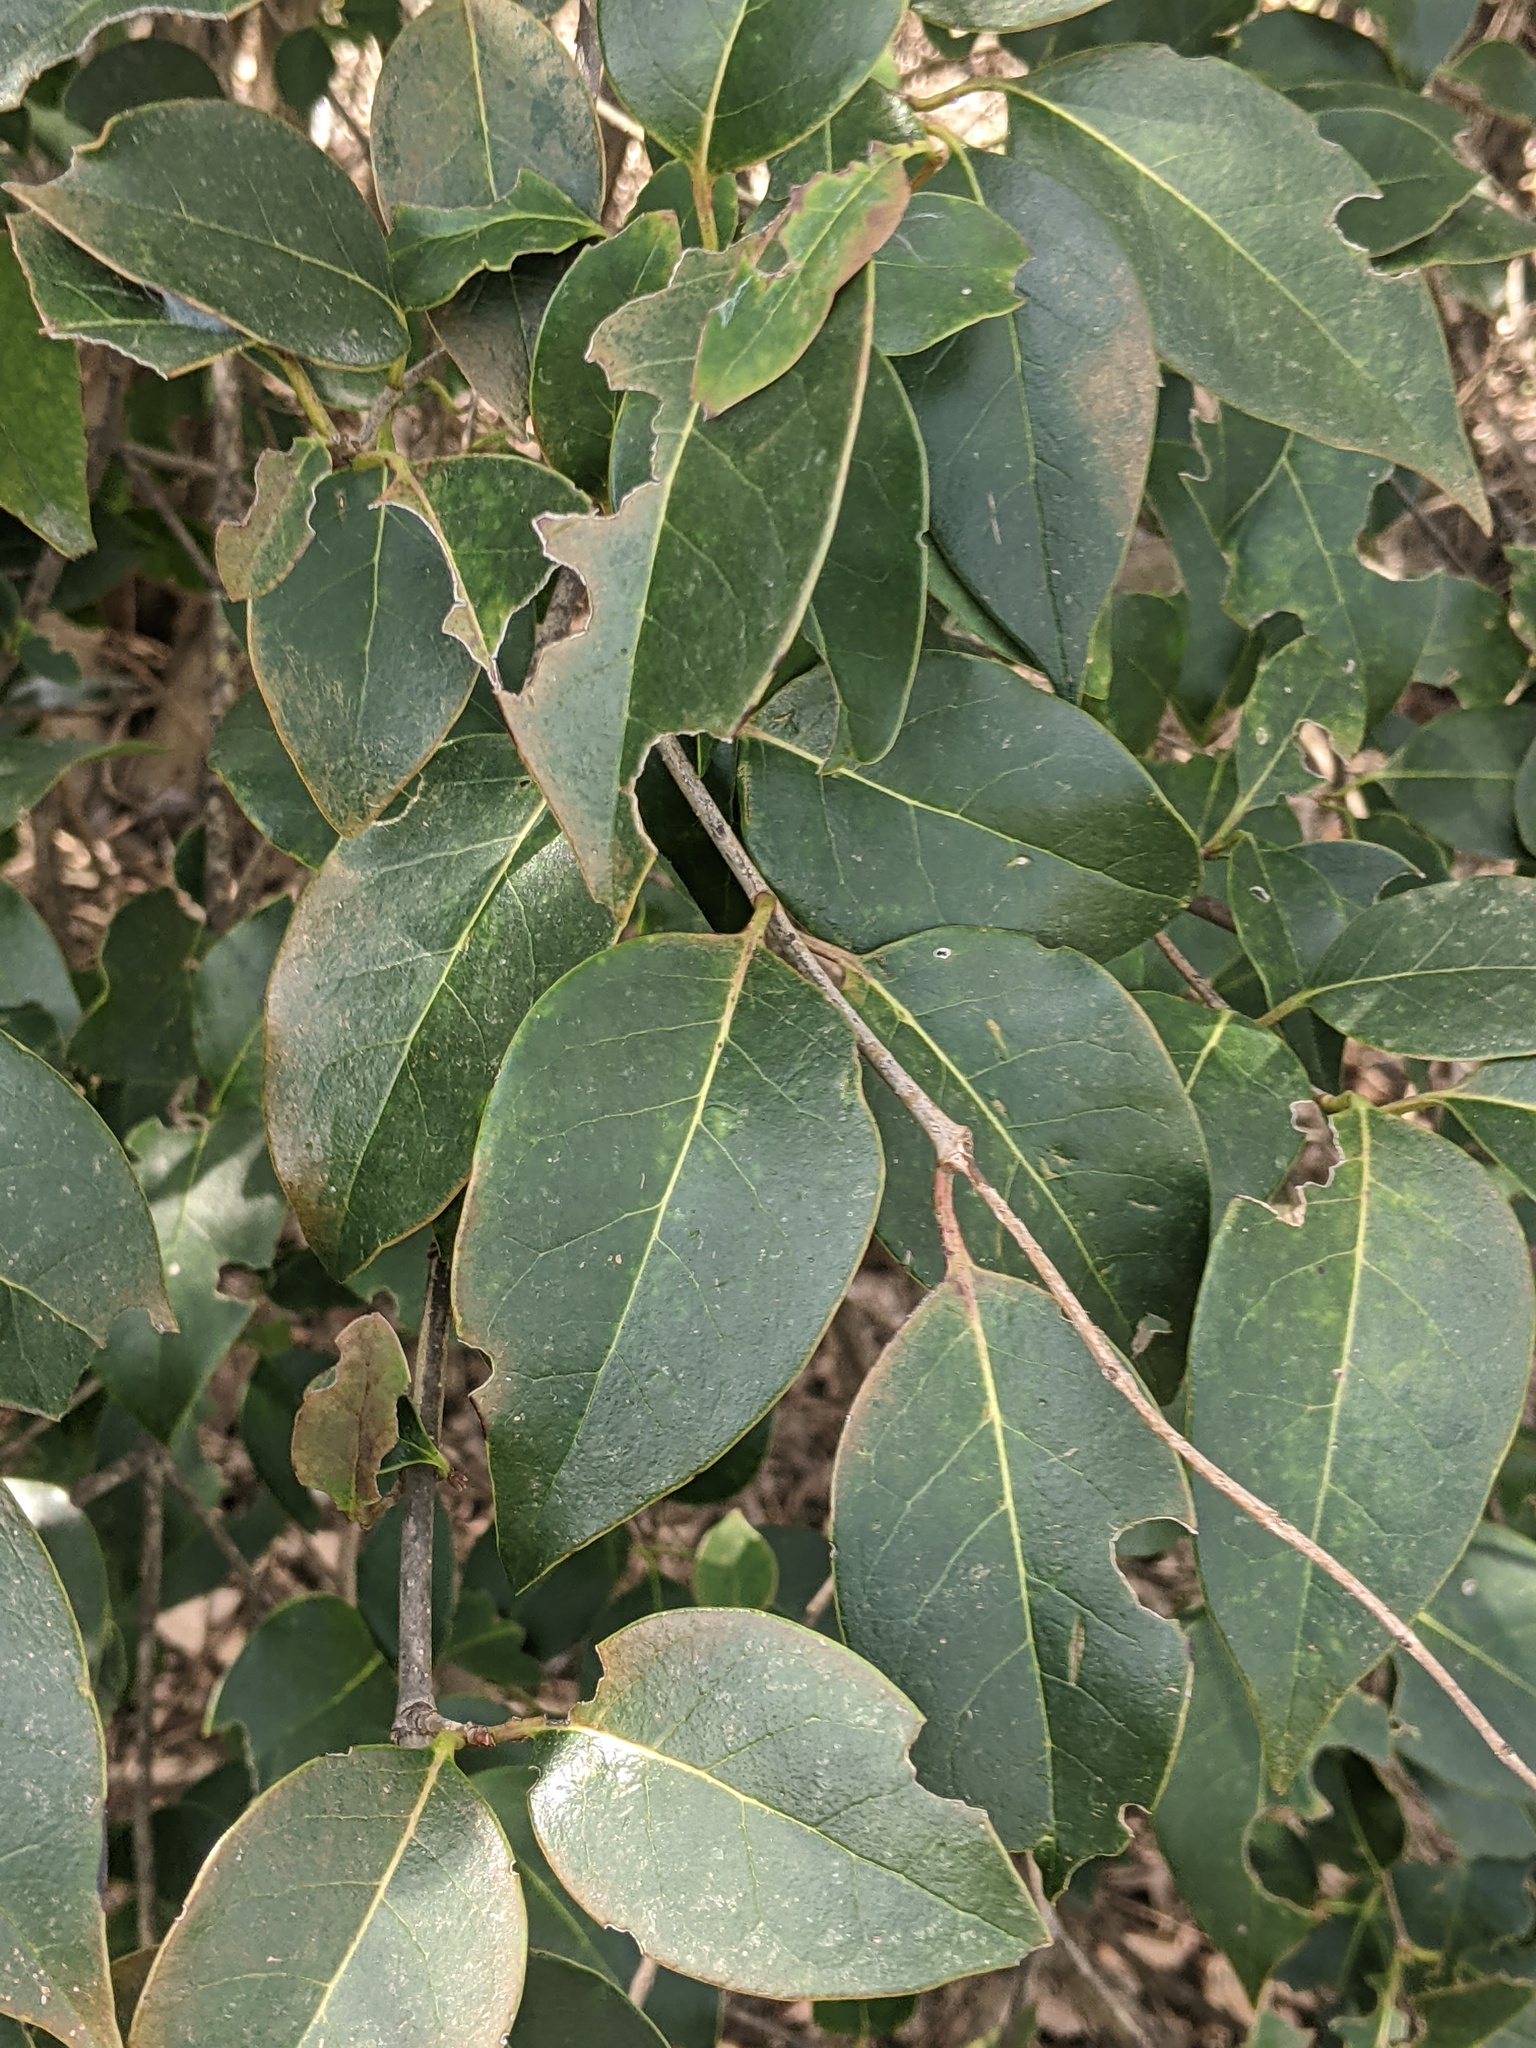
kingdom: Plantae
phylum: Tracheophyta
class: Magnoliopsida
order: Lamiales
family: Oleaceae
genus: Ligustrum
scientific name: Ligustrum lucidum
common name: Glossy privet
